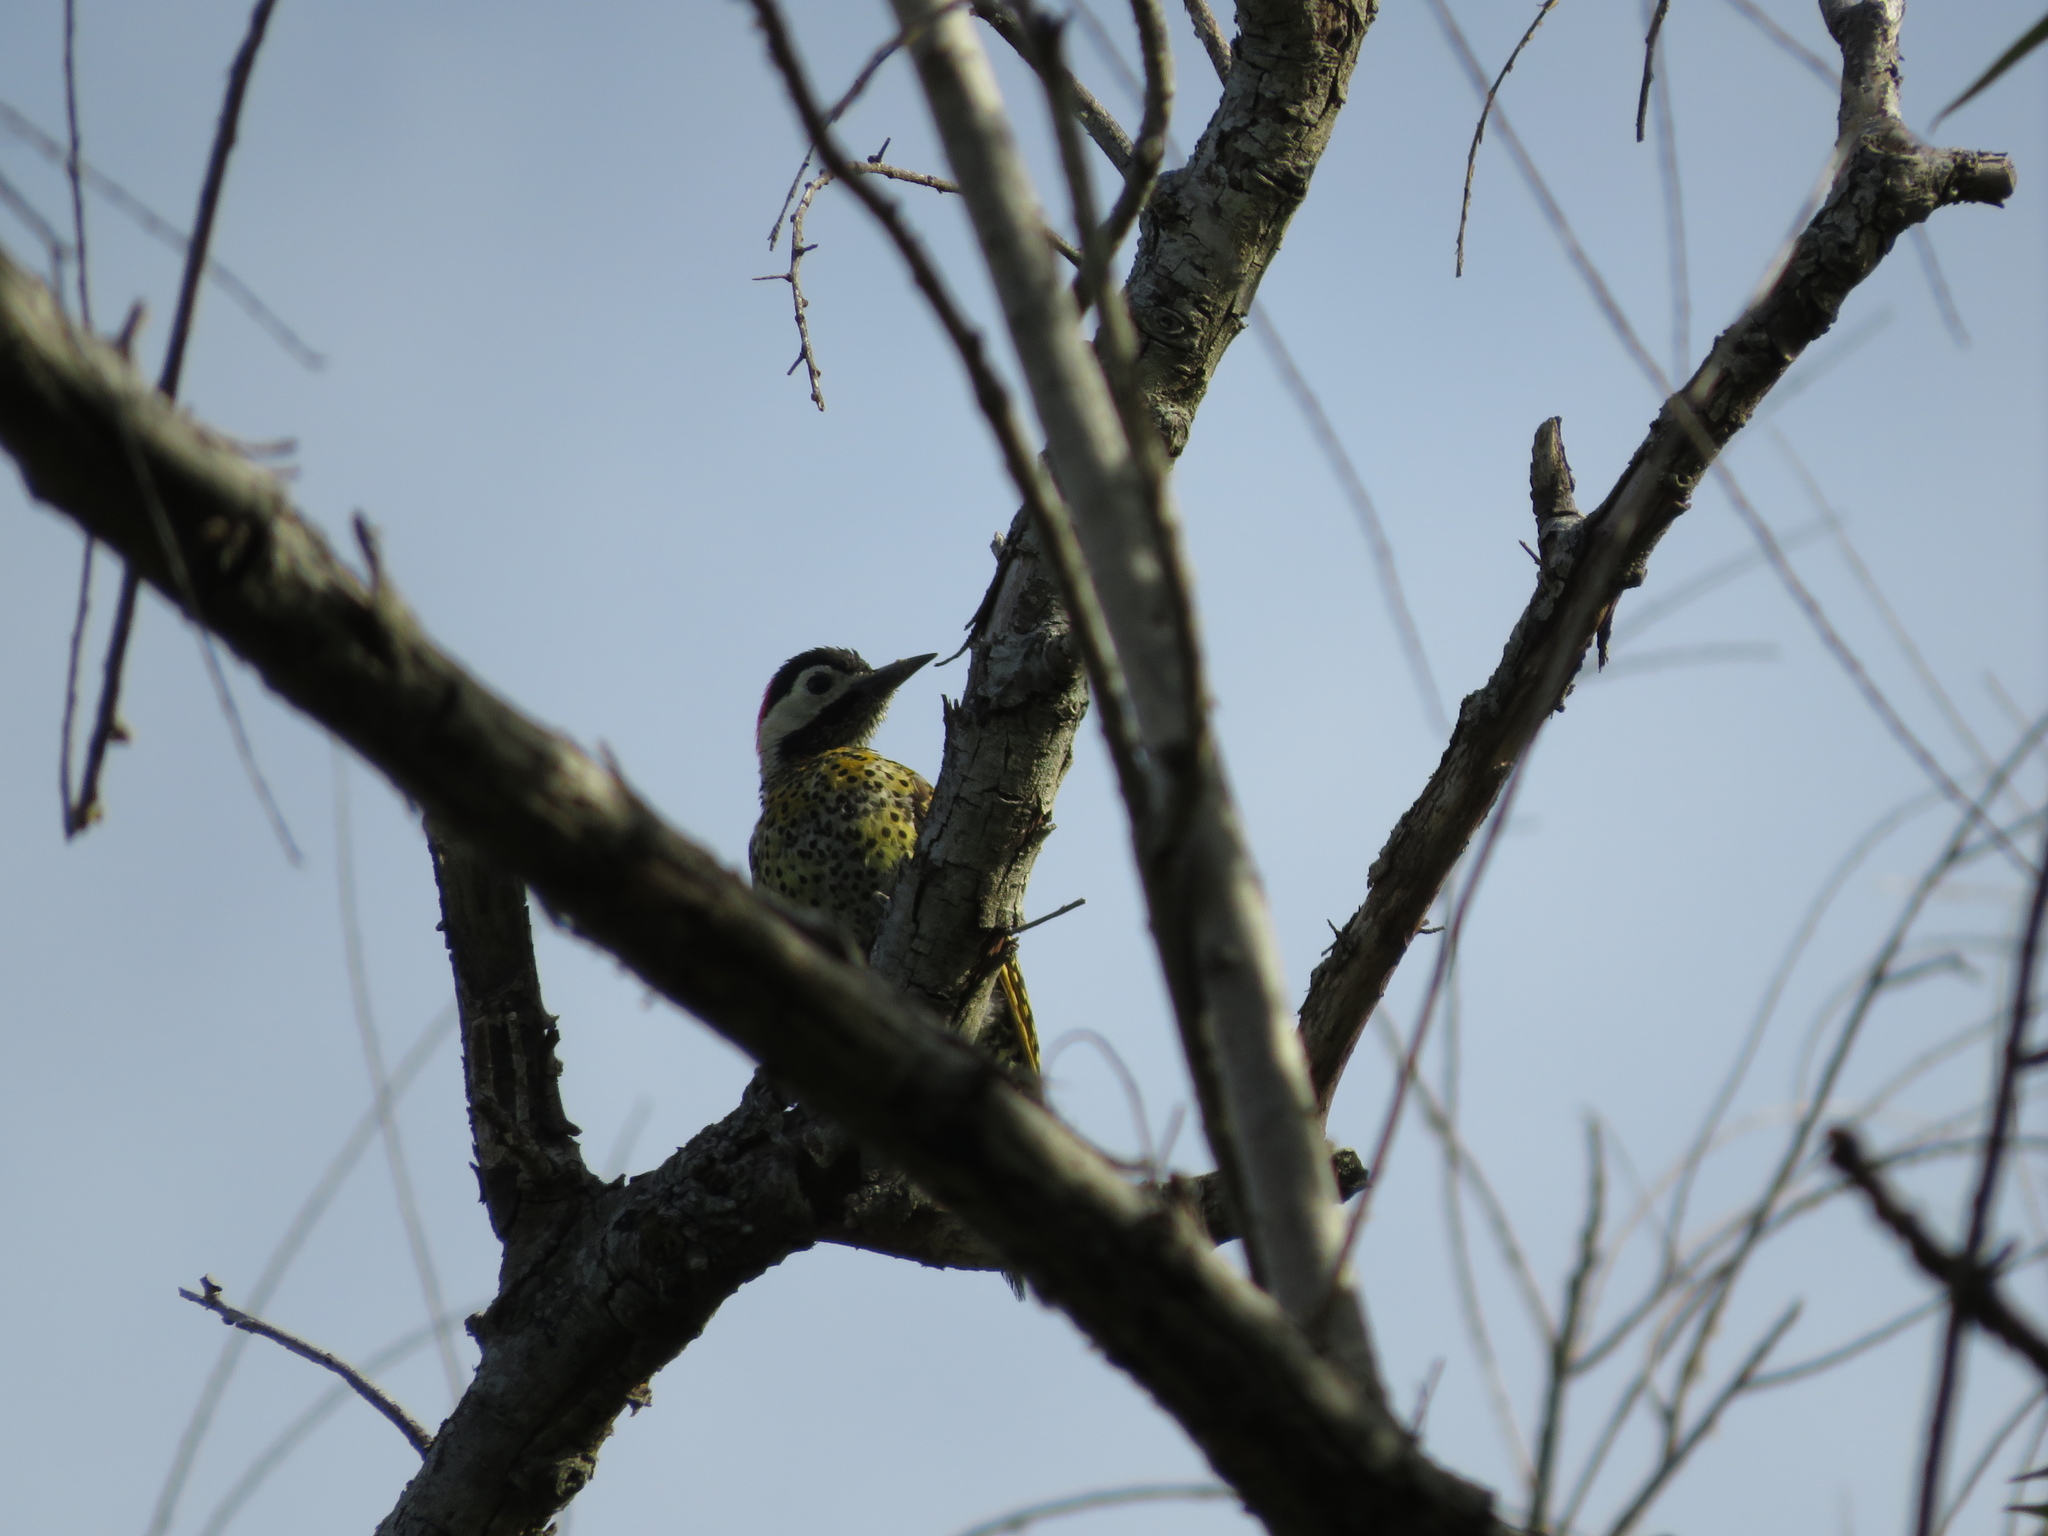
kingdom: Animalia
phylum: Chordata
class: Aves
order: Piciformes
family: Picidae
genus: Colaptes
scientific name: Colaptes melanochloros
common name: Green-barred woodpecker
